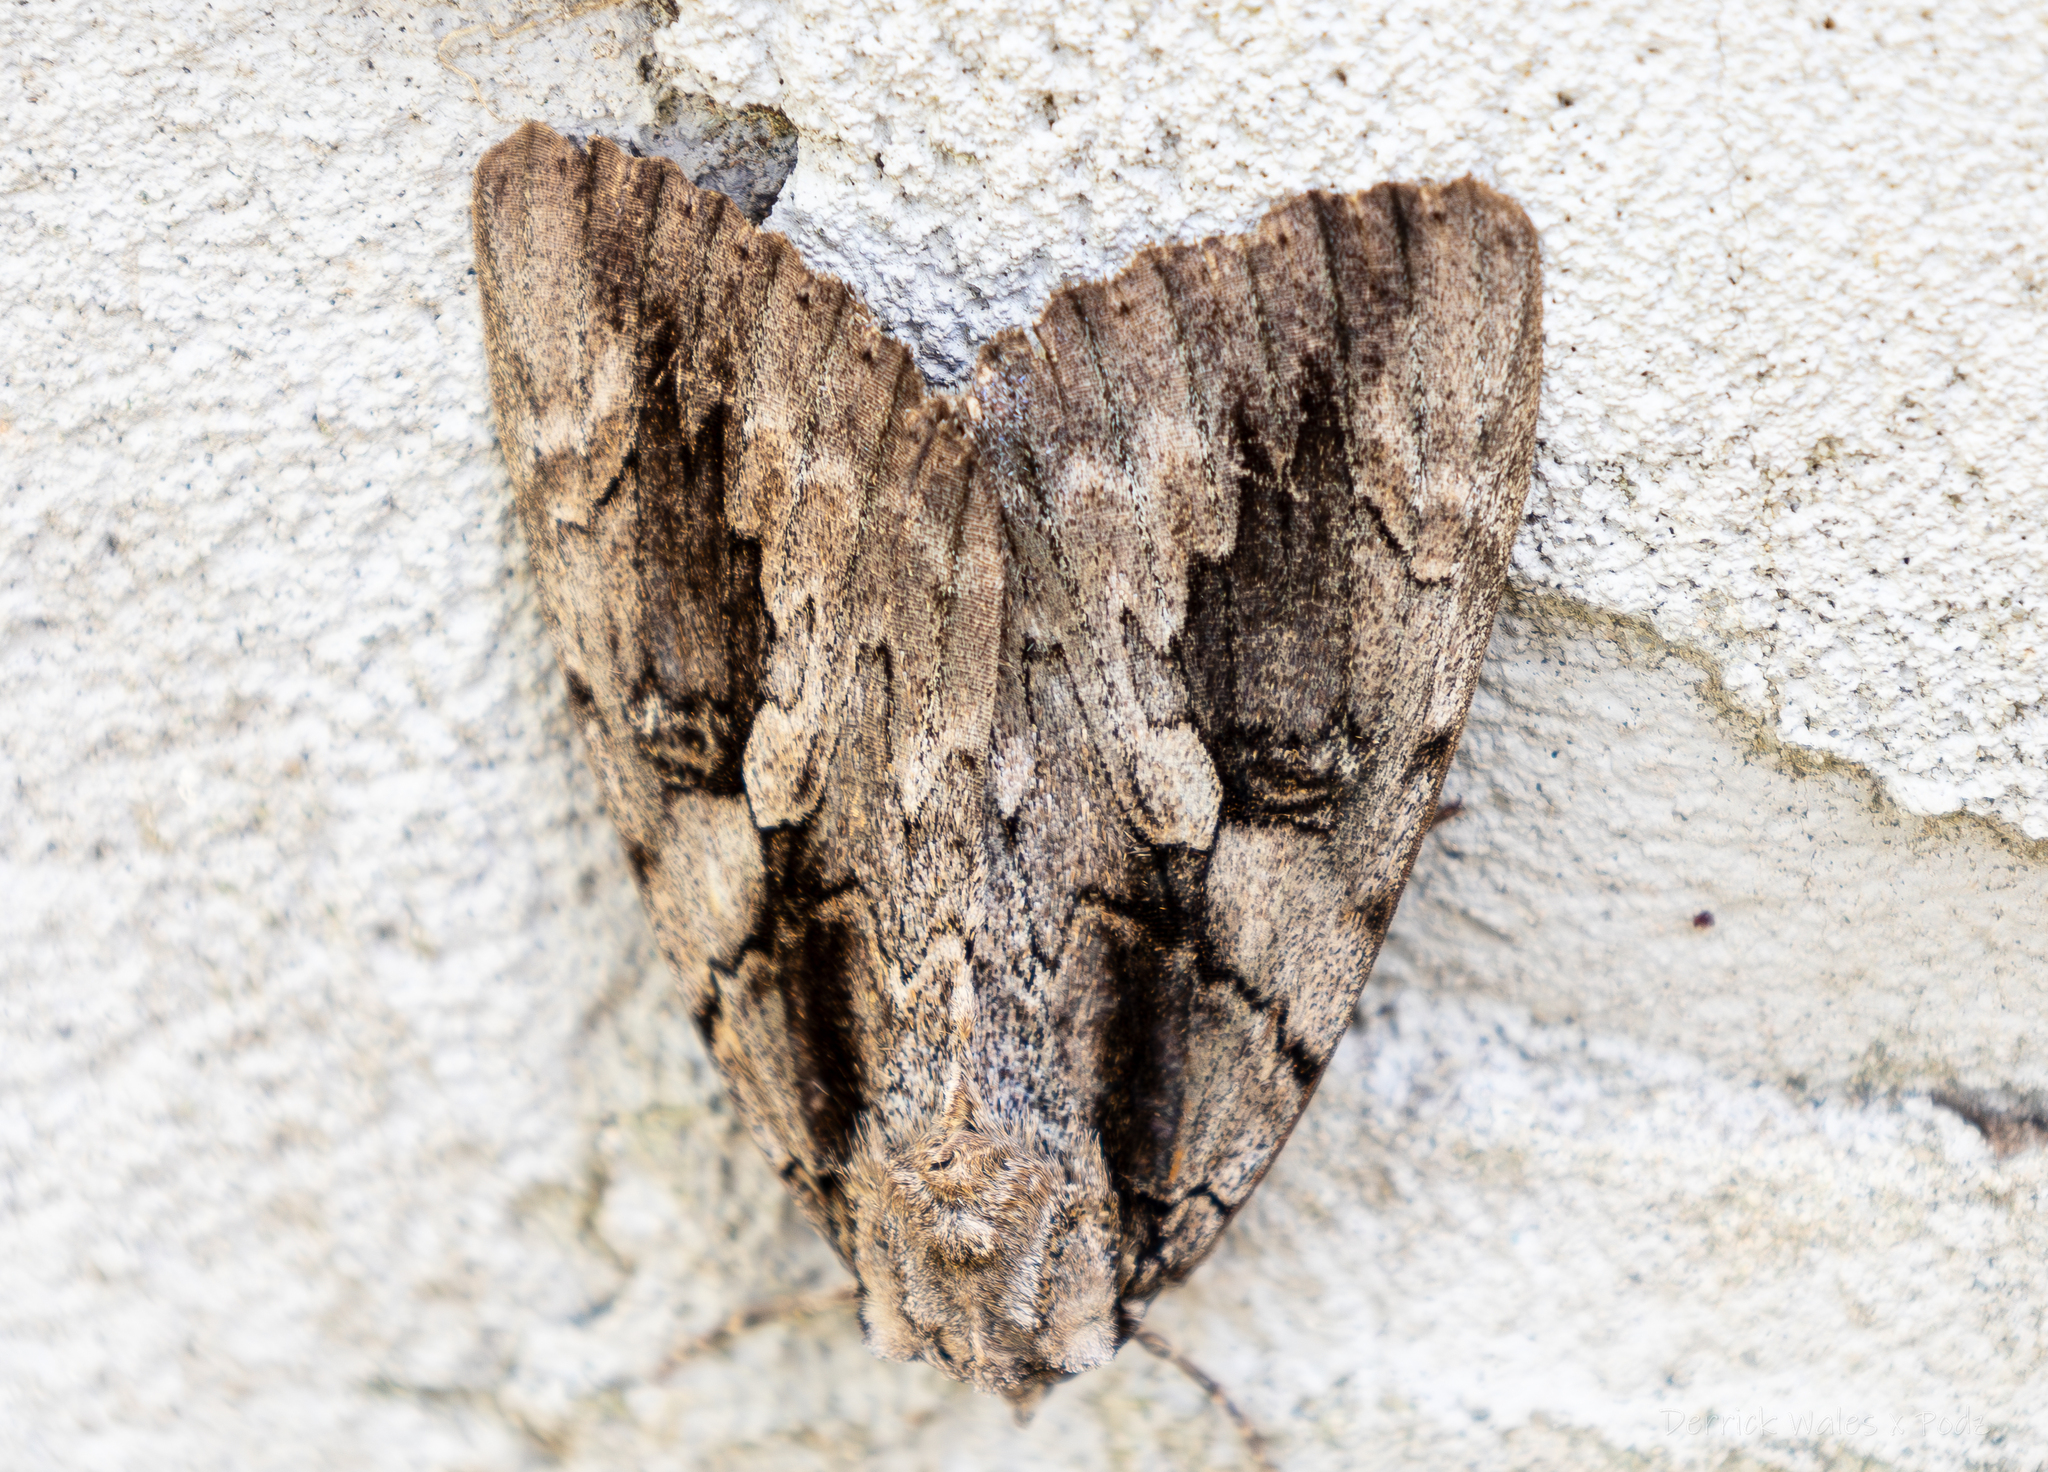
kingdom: Animalia
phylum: Arthropoda
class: Insecta
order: Lepidoptera
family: Erebidae
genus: Catocala
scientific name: Catocala amatrix
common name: Sweetheart underwing
